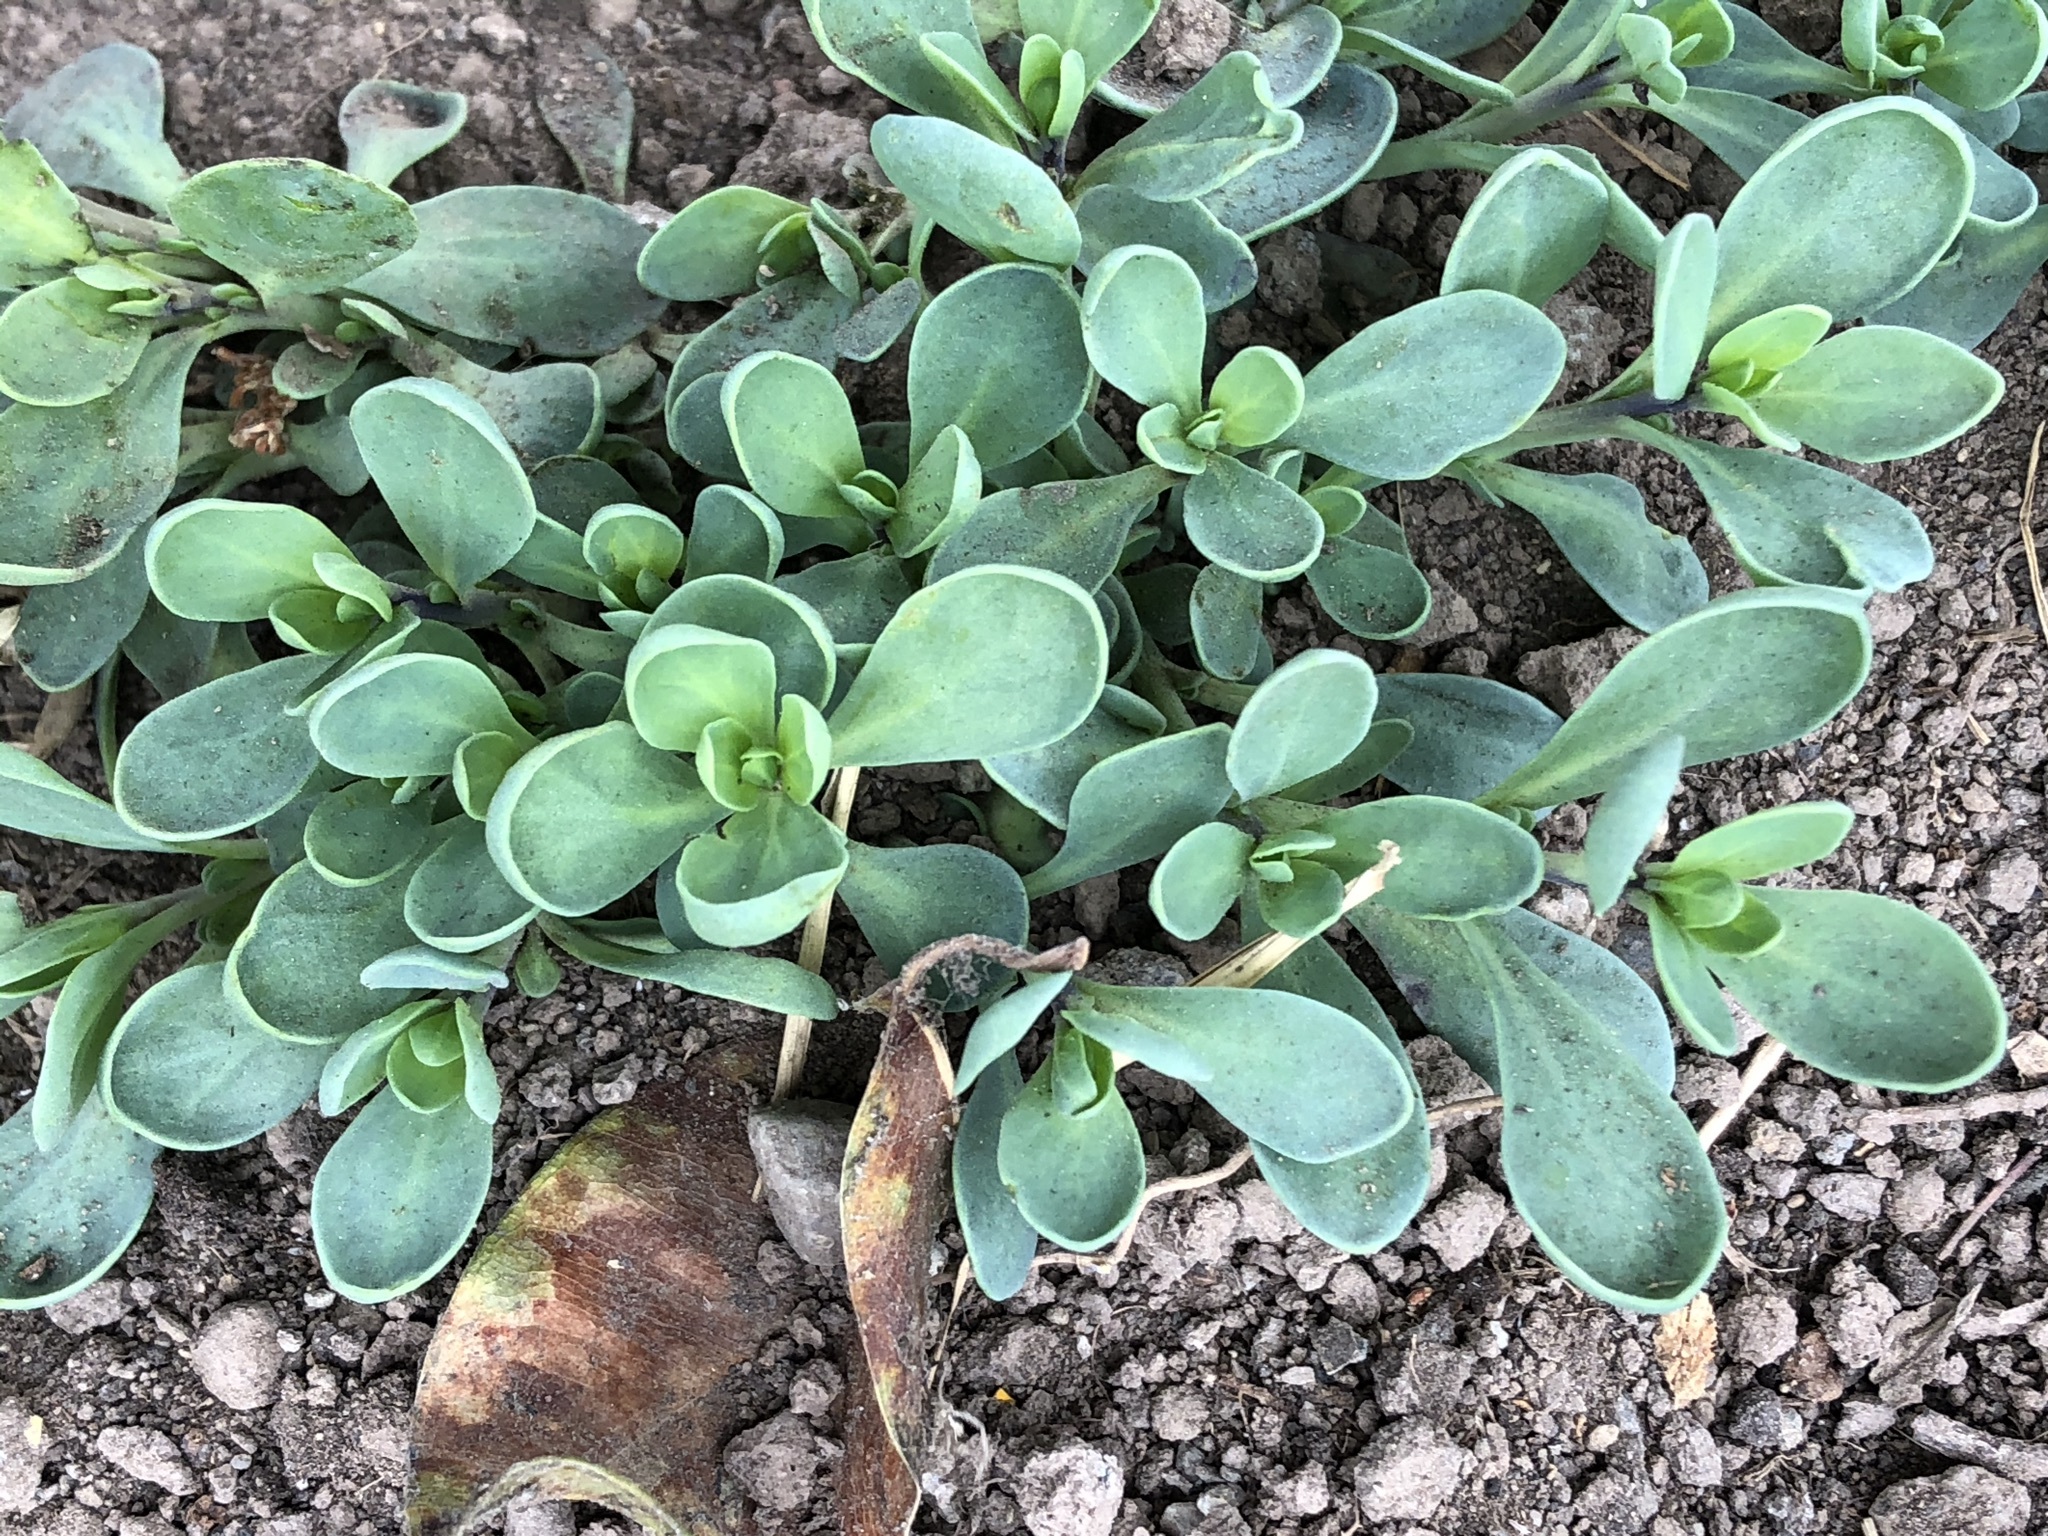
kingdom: Plantae
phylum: Tracheophyta
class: Magnoliopsida
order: Boraginales
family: Heliotropiaceae
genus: Heliotropium
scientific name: Heliotropium curassavicum
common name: Seaside heliotrope
